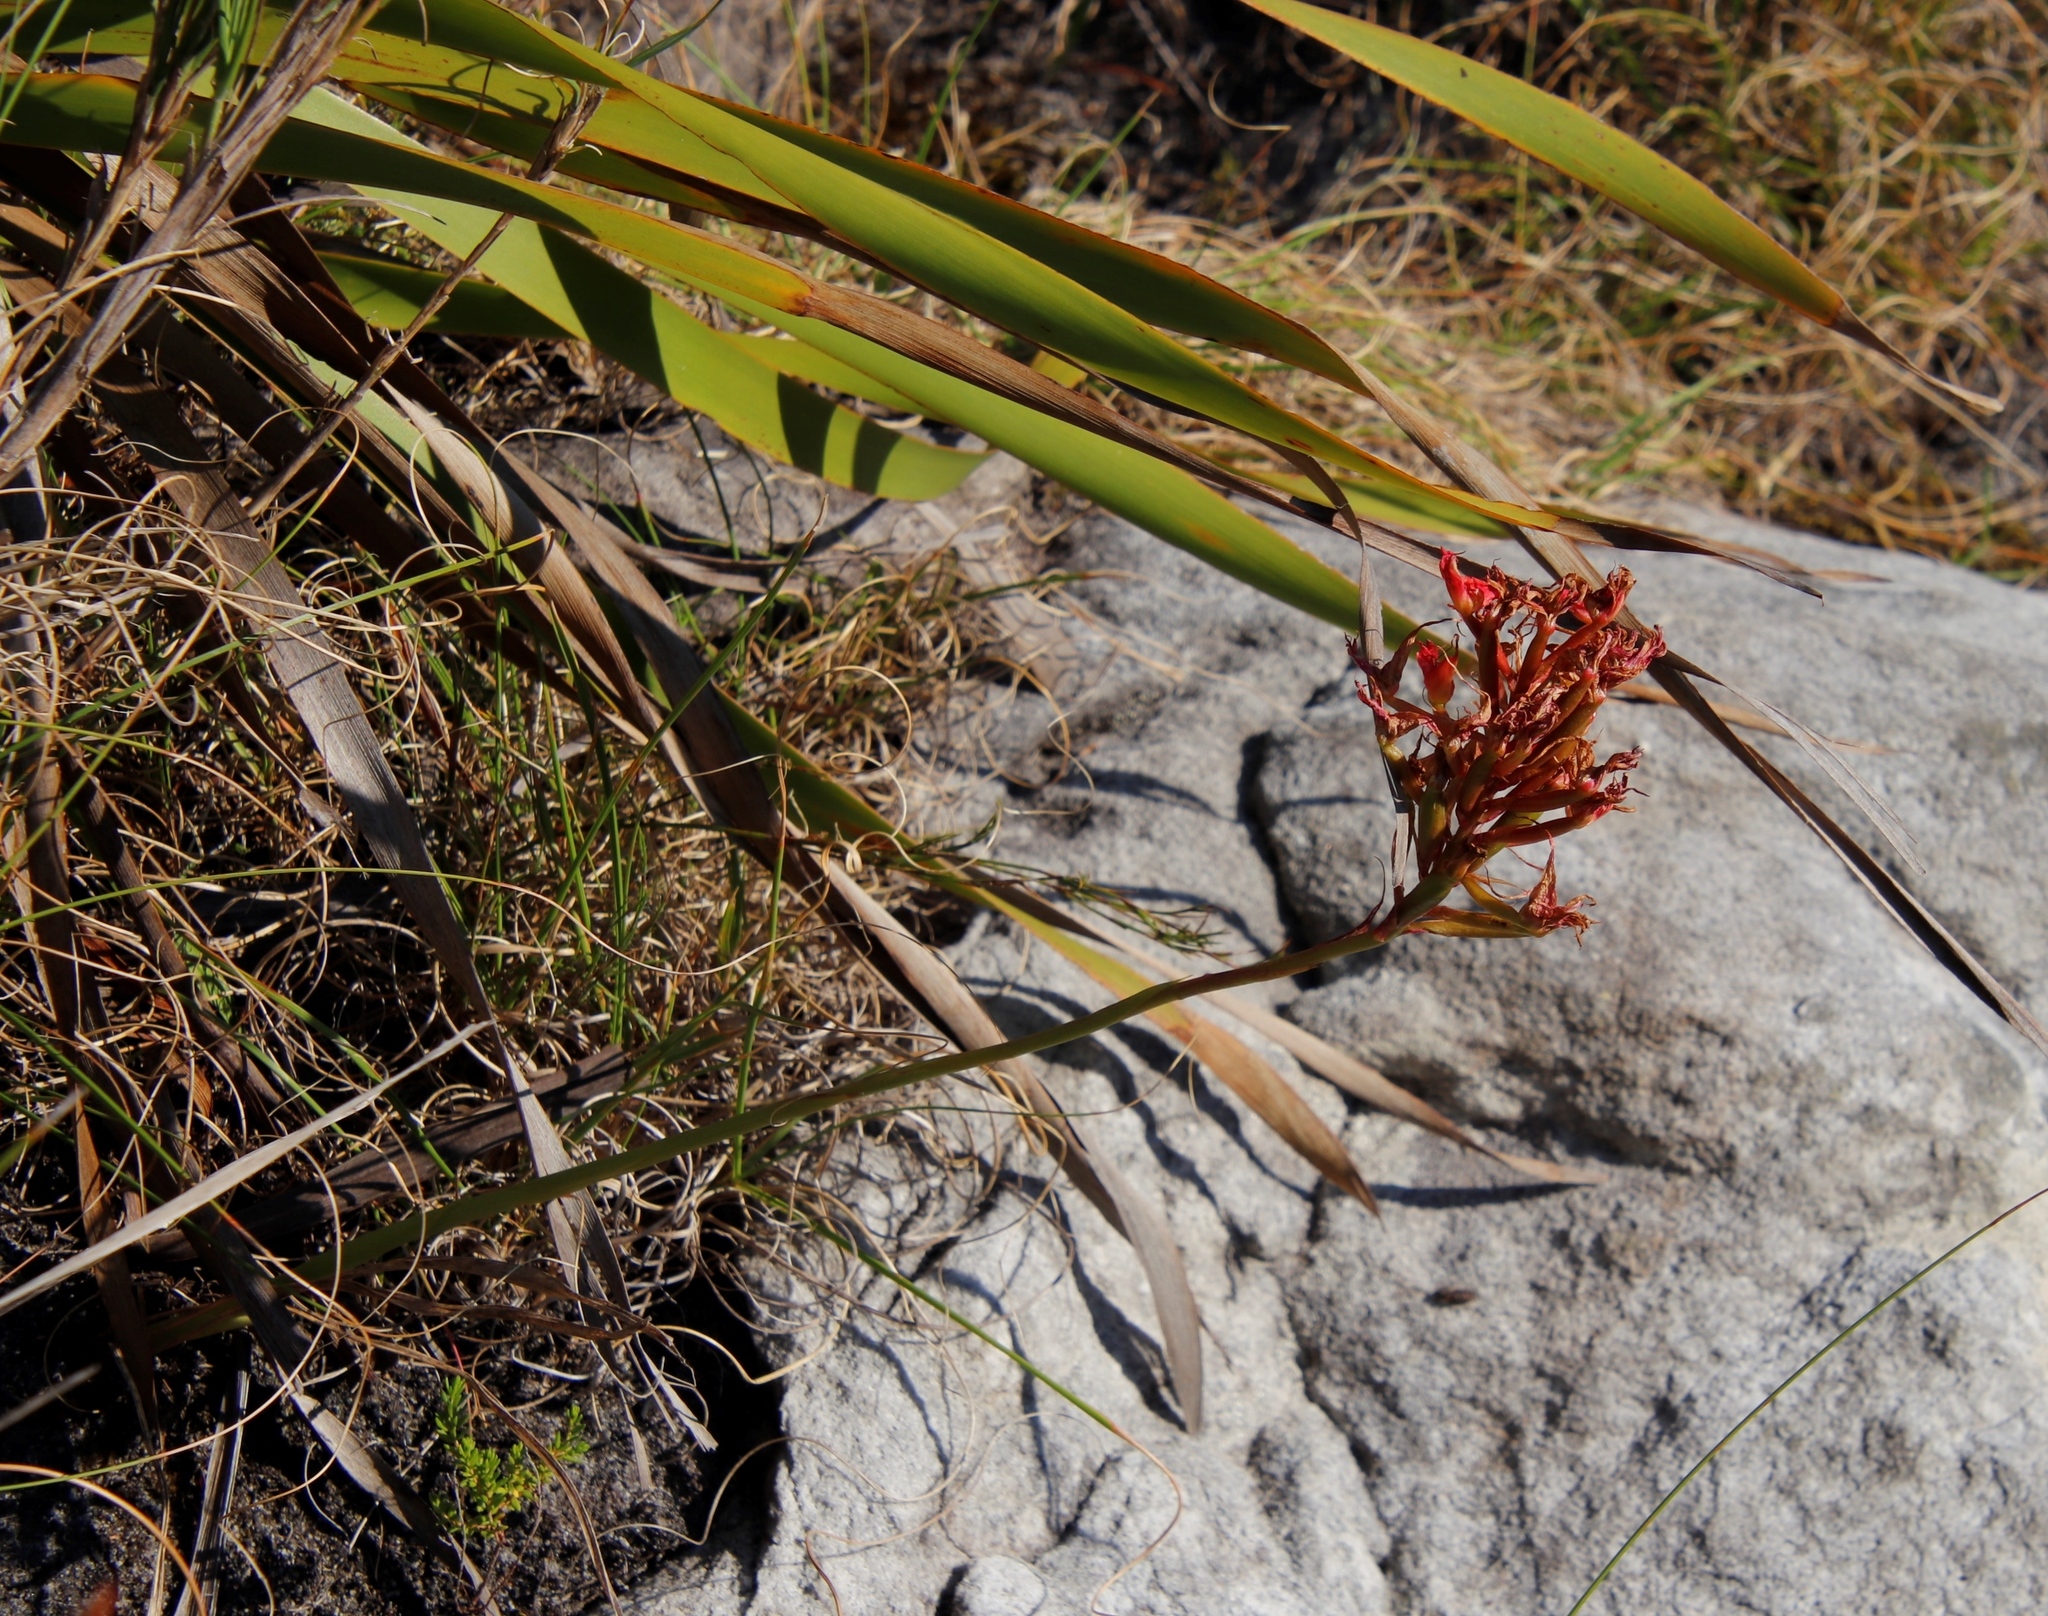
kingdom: Plantae
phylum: Tracheophyta
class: Liliopsida
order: Asparagales
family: Orchidaceae
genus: Disa
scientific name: Disa ferruginea
